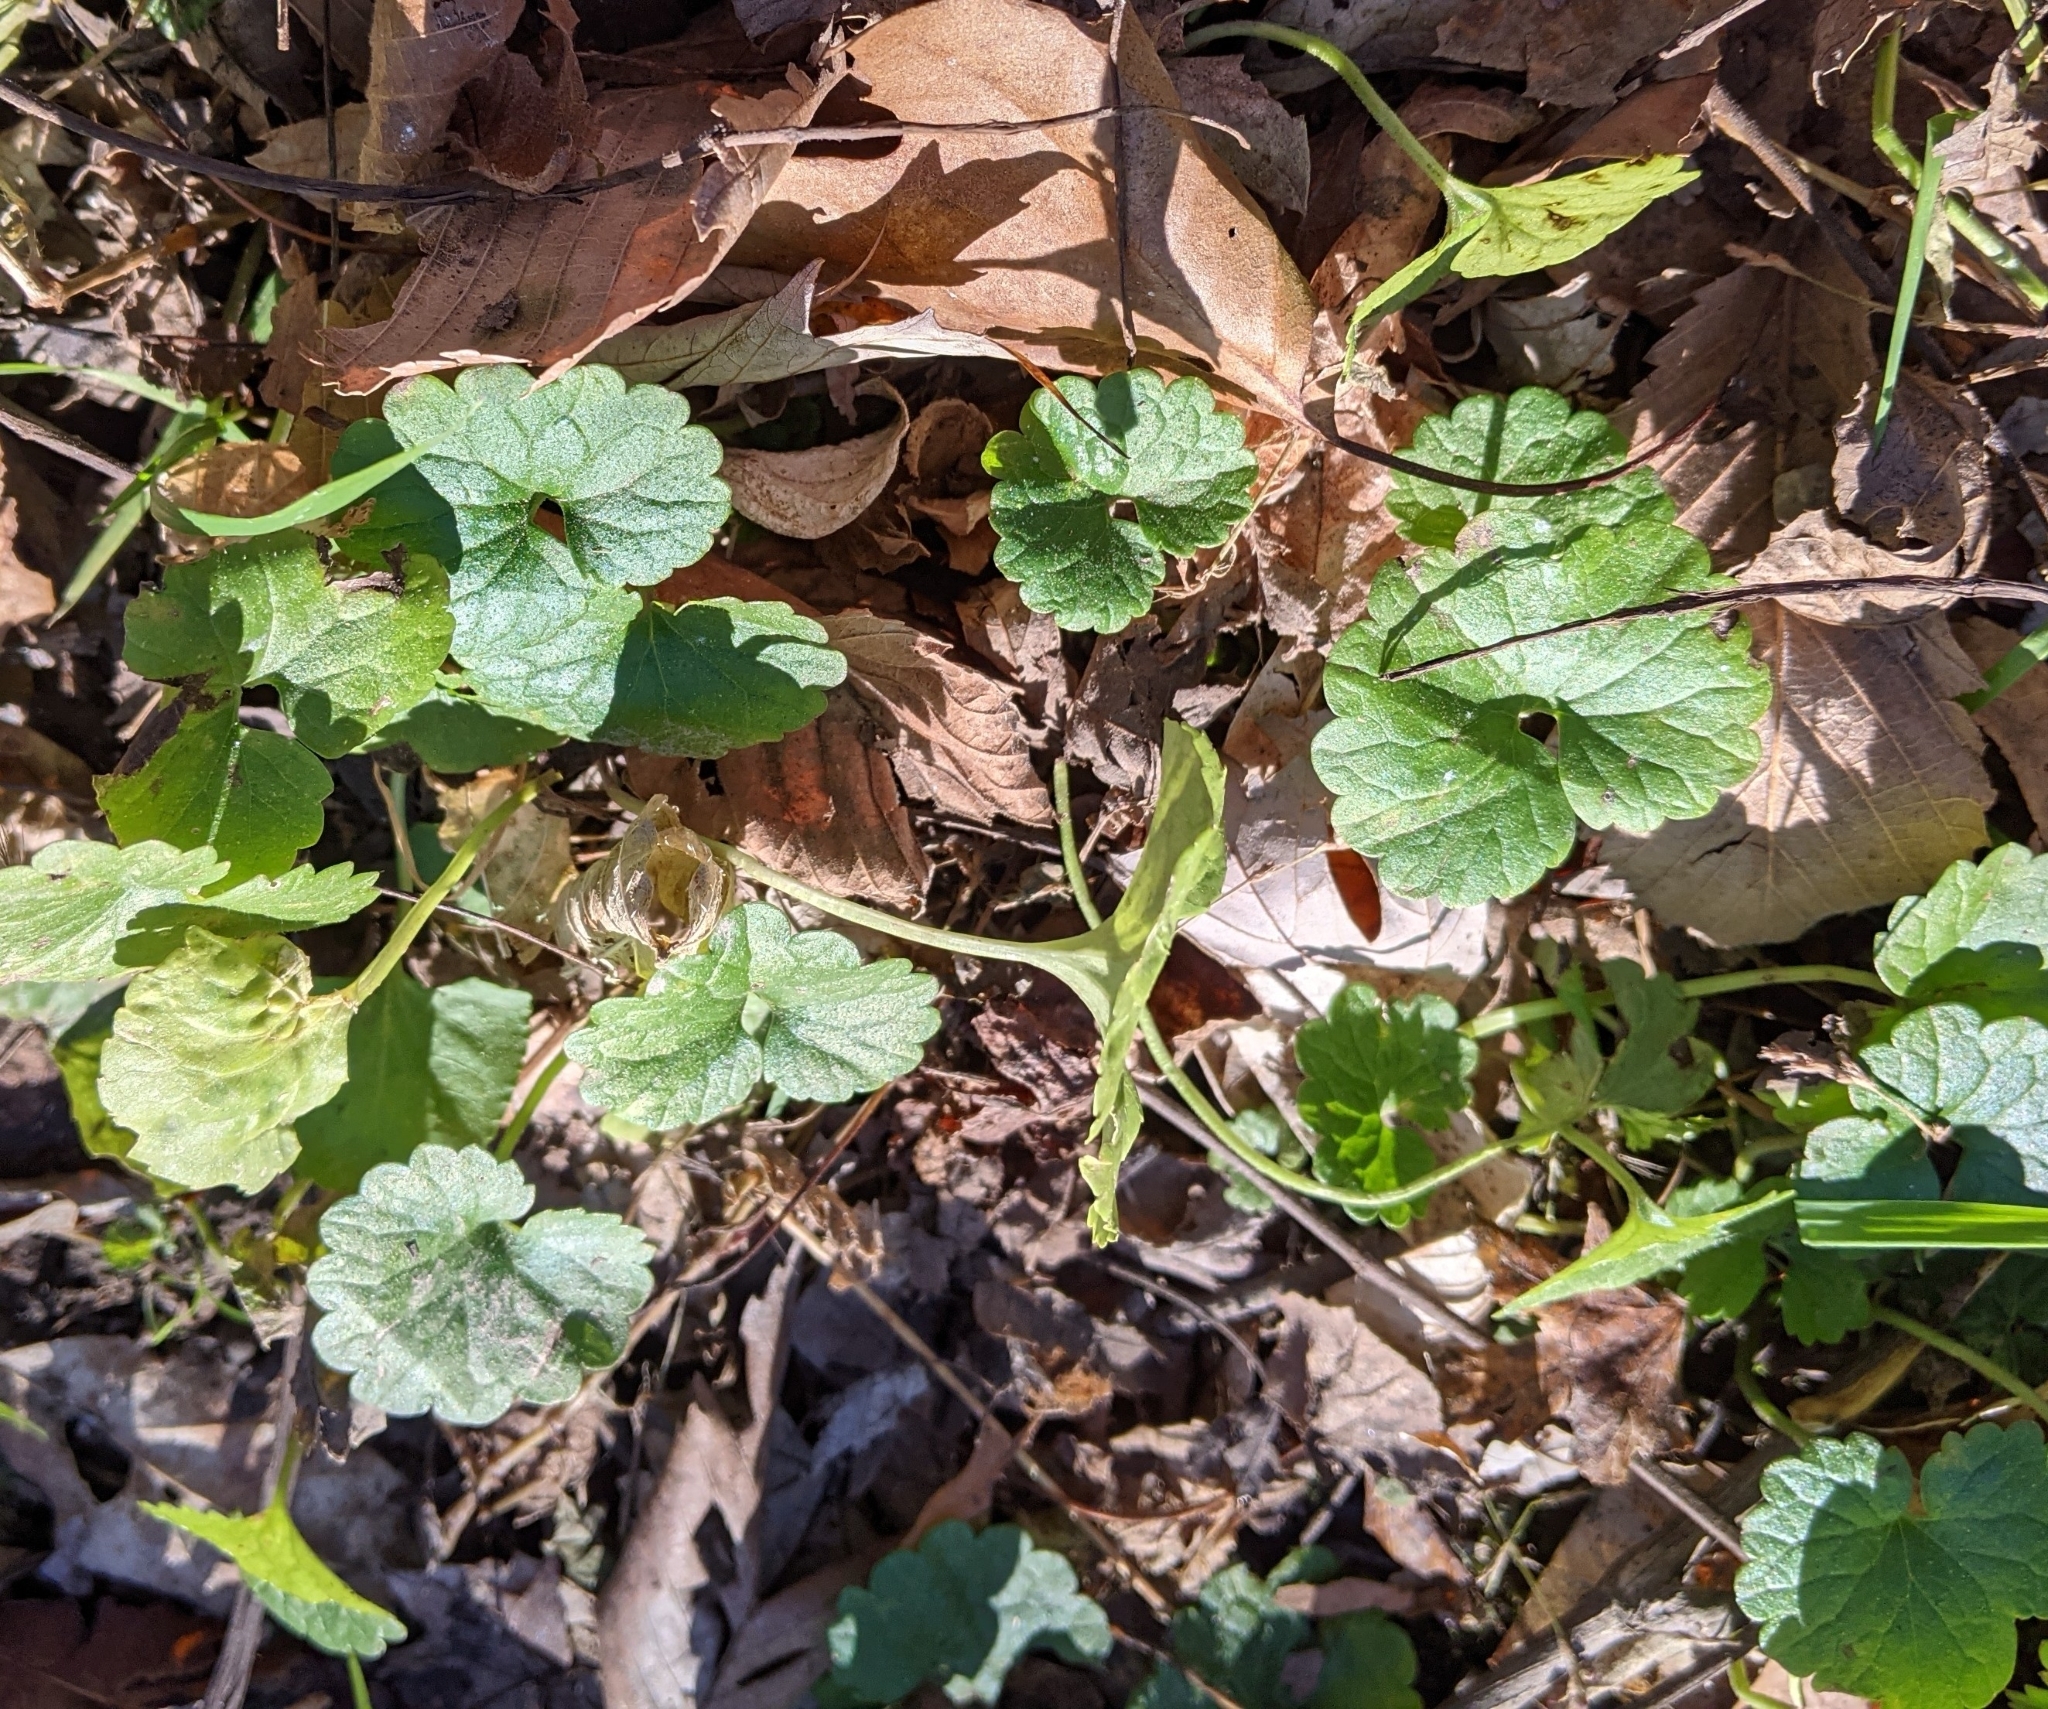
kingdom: Plantae
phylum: Tracheophyta
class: Magnoliopsida
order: Lamiales
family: Lamiaceae
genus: Glechoma
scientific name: Glechoma hederacea
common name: Ground ivy
